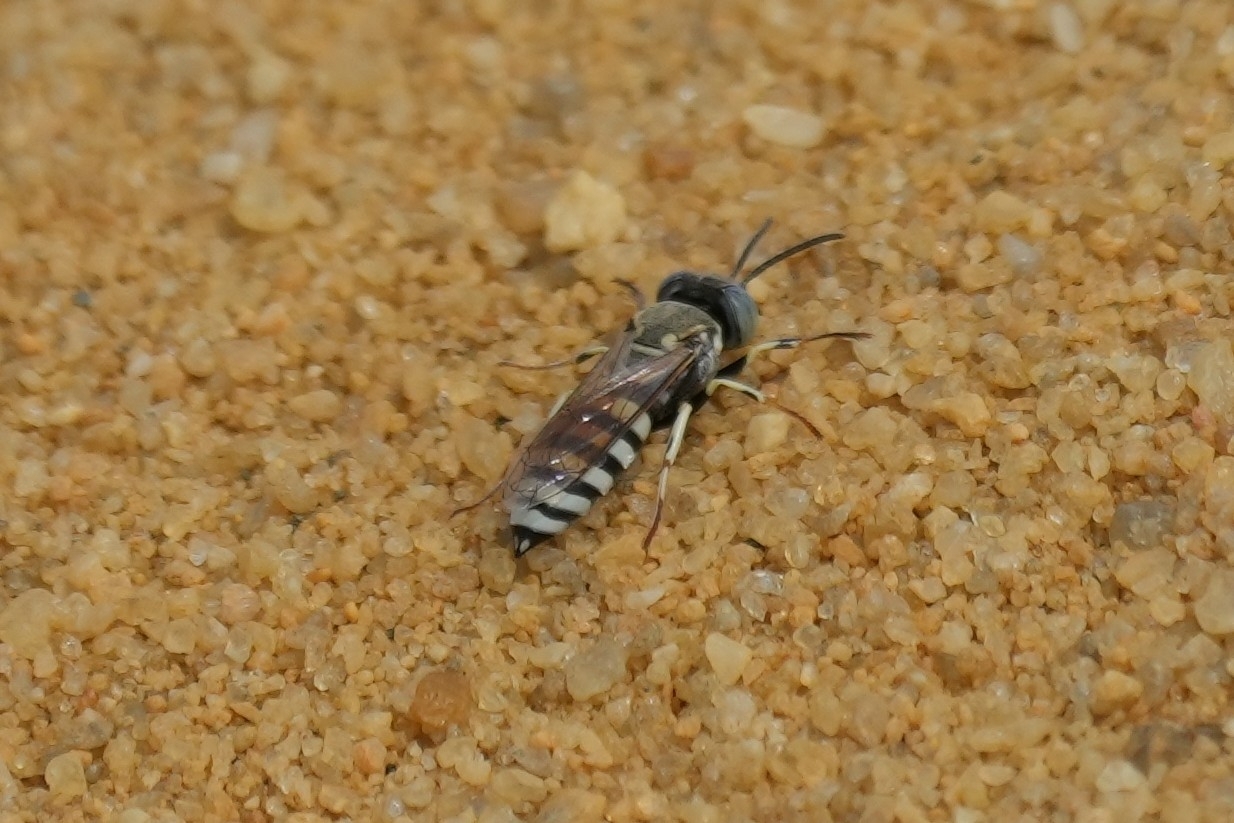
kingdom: Animalia
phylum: Arthropoda
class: Insecta
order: Hymenoptera
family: Crabronidae
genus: Microbembex
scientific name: Microbembex monodonta
